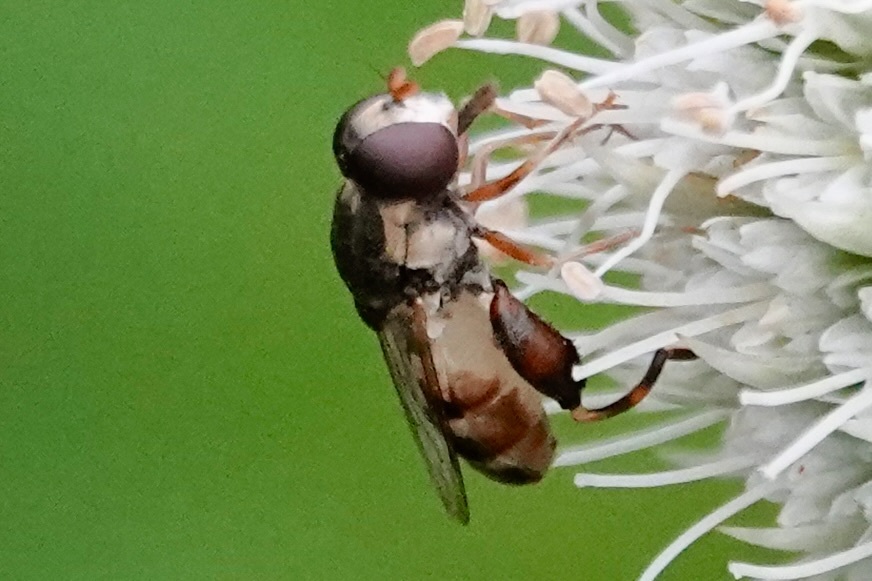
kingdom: Animalia
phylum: Arthropoda
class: Insecta
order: Diptera
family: Syrphidae
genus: Syritta
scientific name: Syritta pipiens
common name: Hover fly
